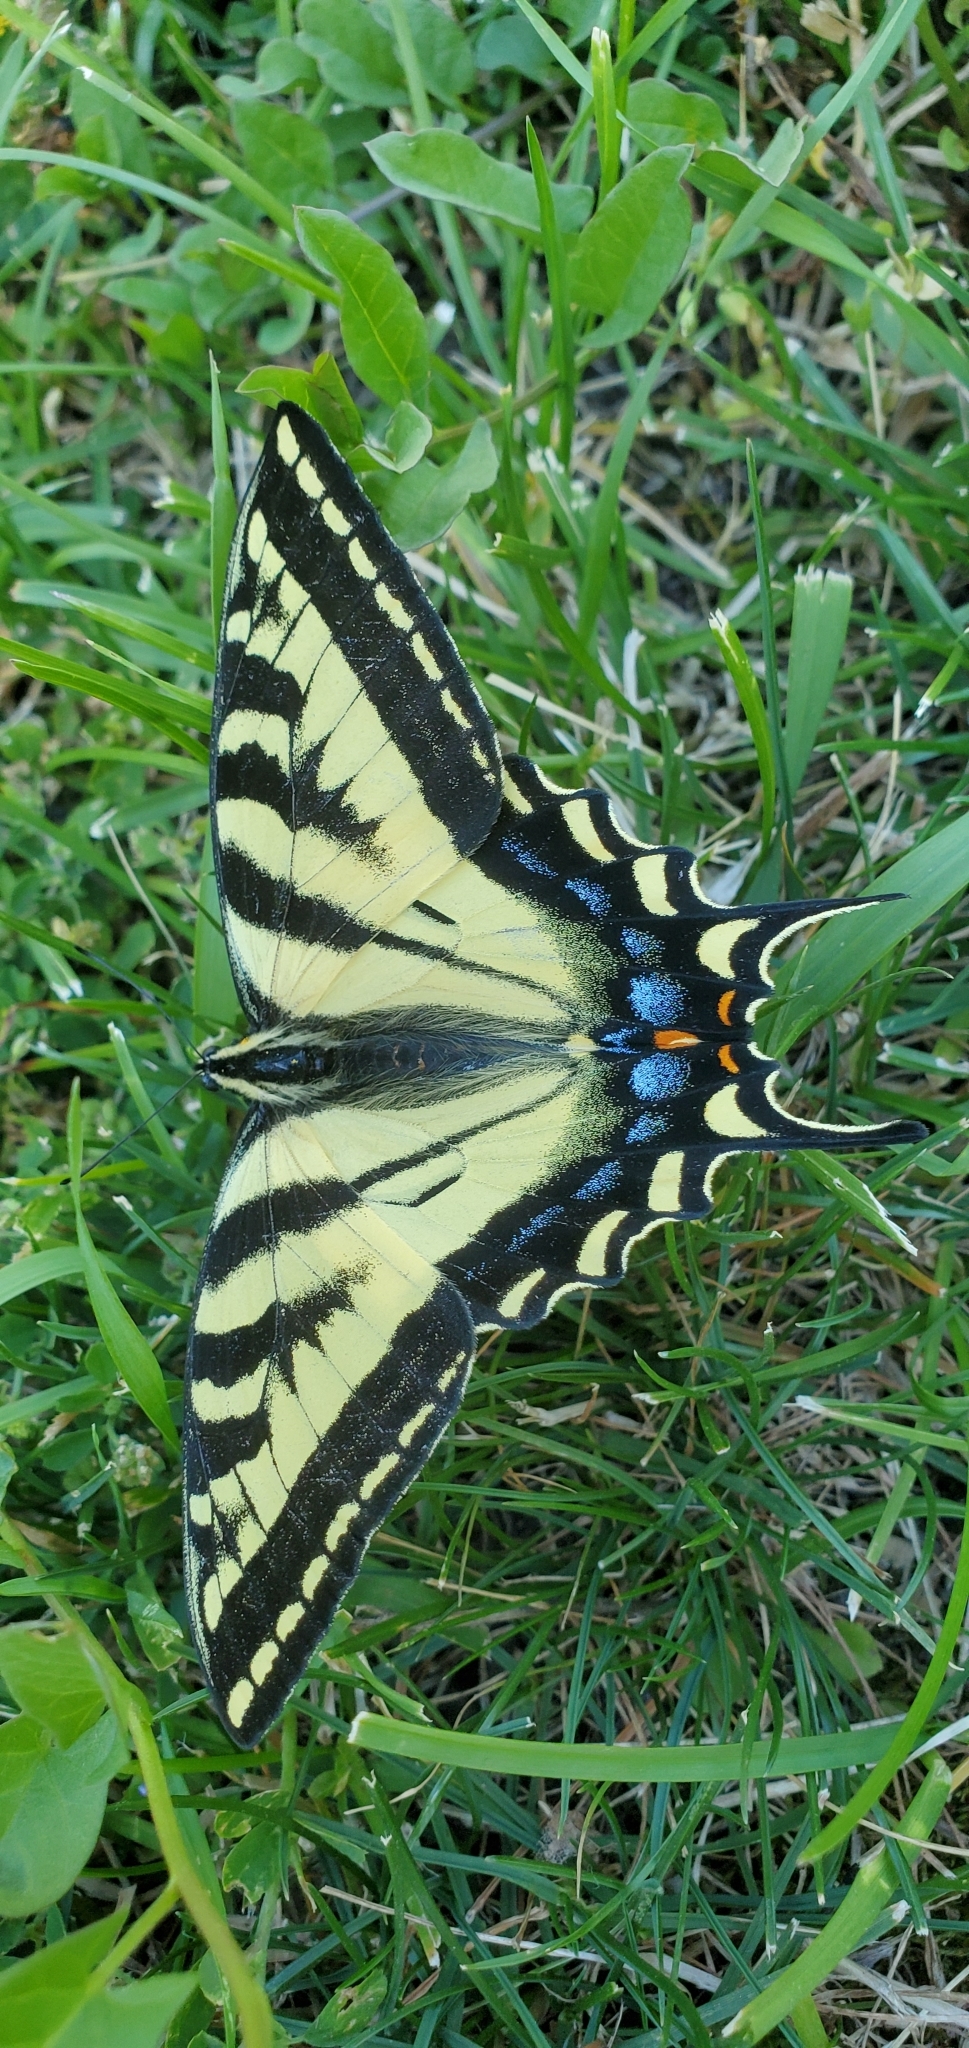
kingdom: Animalia
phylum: Arthropoda
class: Insecta
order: Lepidoptera
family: Papilionidae
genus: Papilio
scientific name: Papilio rutulus
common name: Western tiger swallowtail
